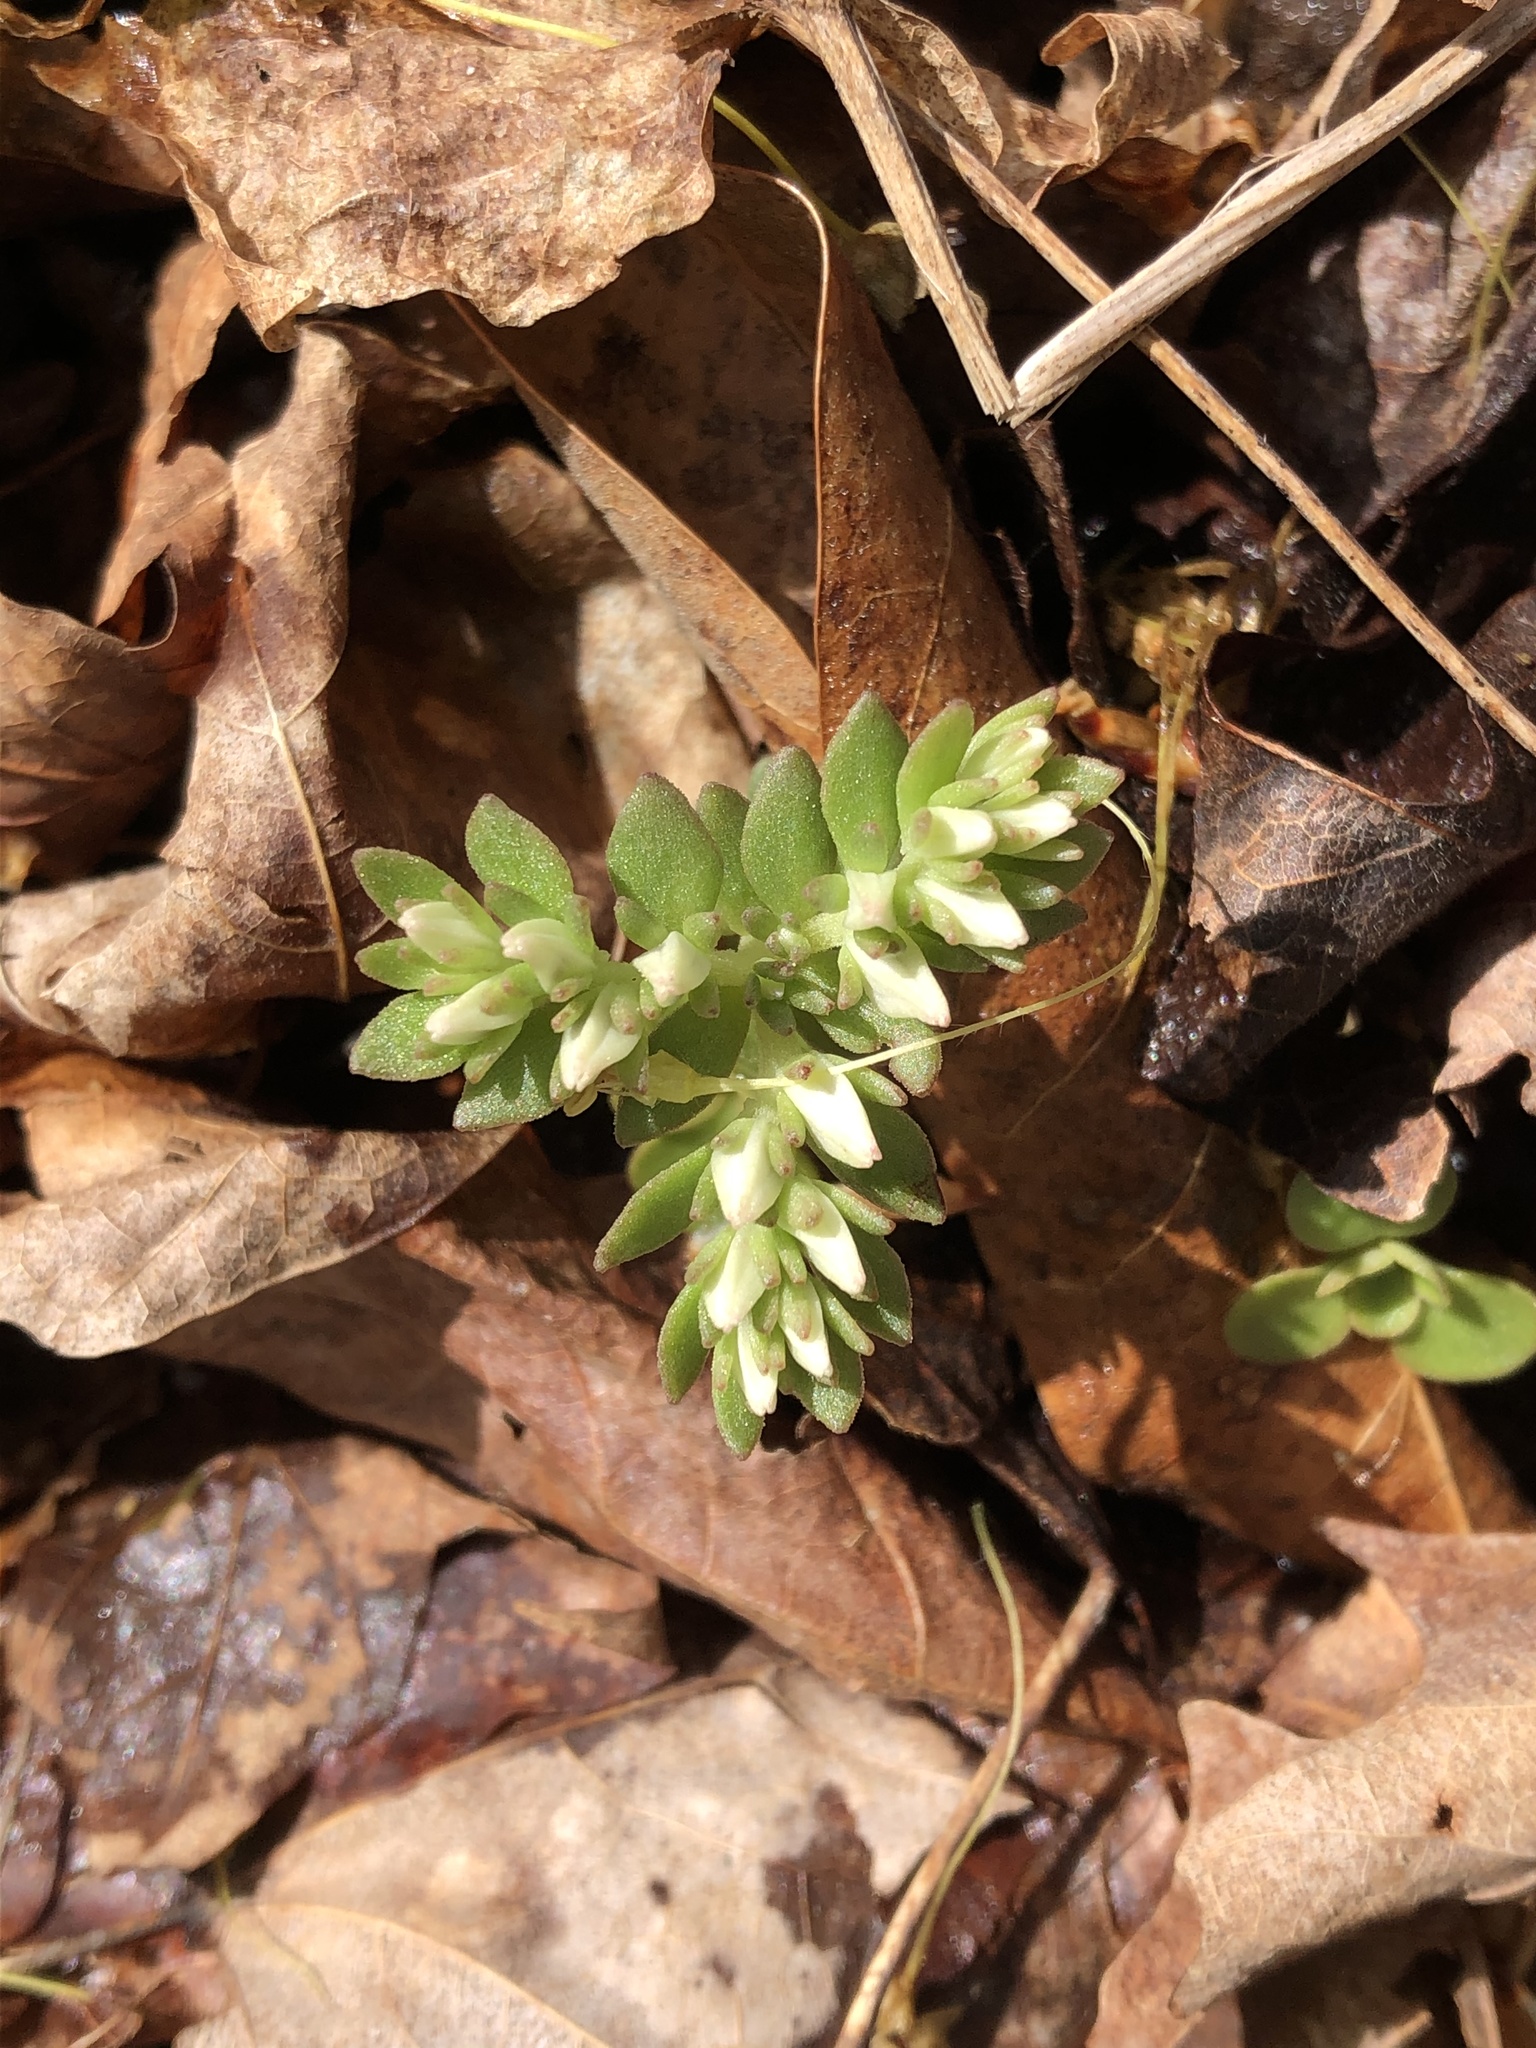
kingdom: Plantae
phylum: Tracheophyta
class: Magnoliopsida
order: Saxifragales
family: Crassulaceae
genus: Sedum
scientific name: Sedum ternatum
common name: Wild stonecrop
